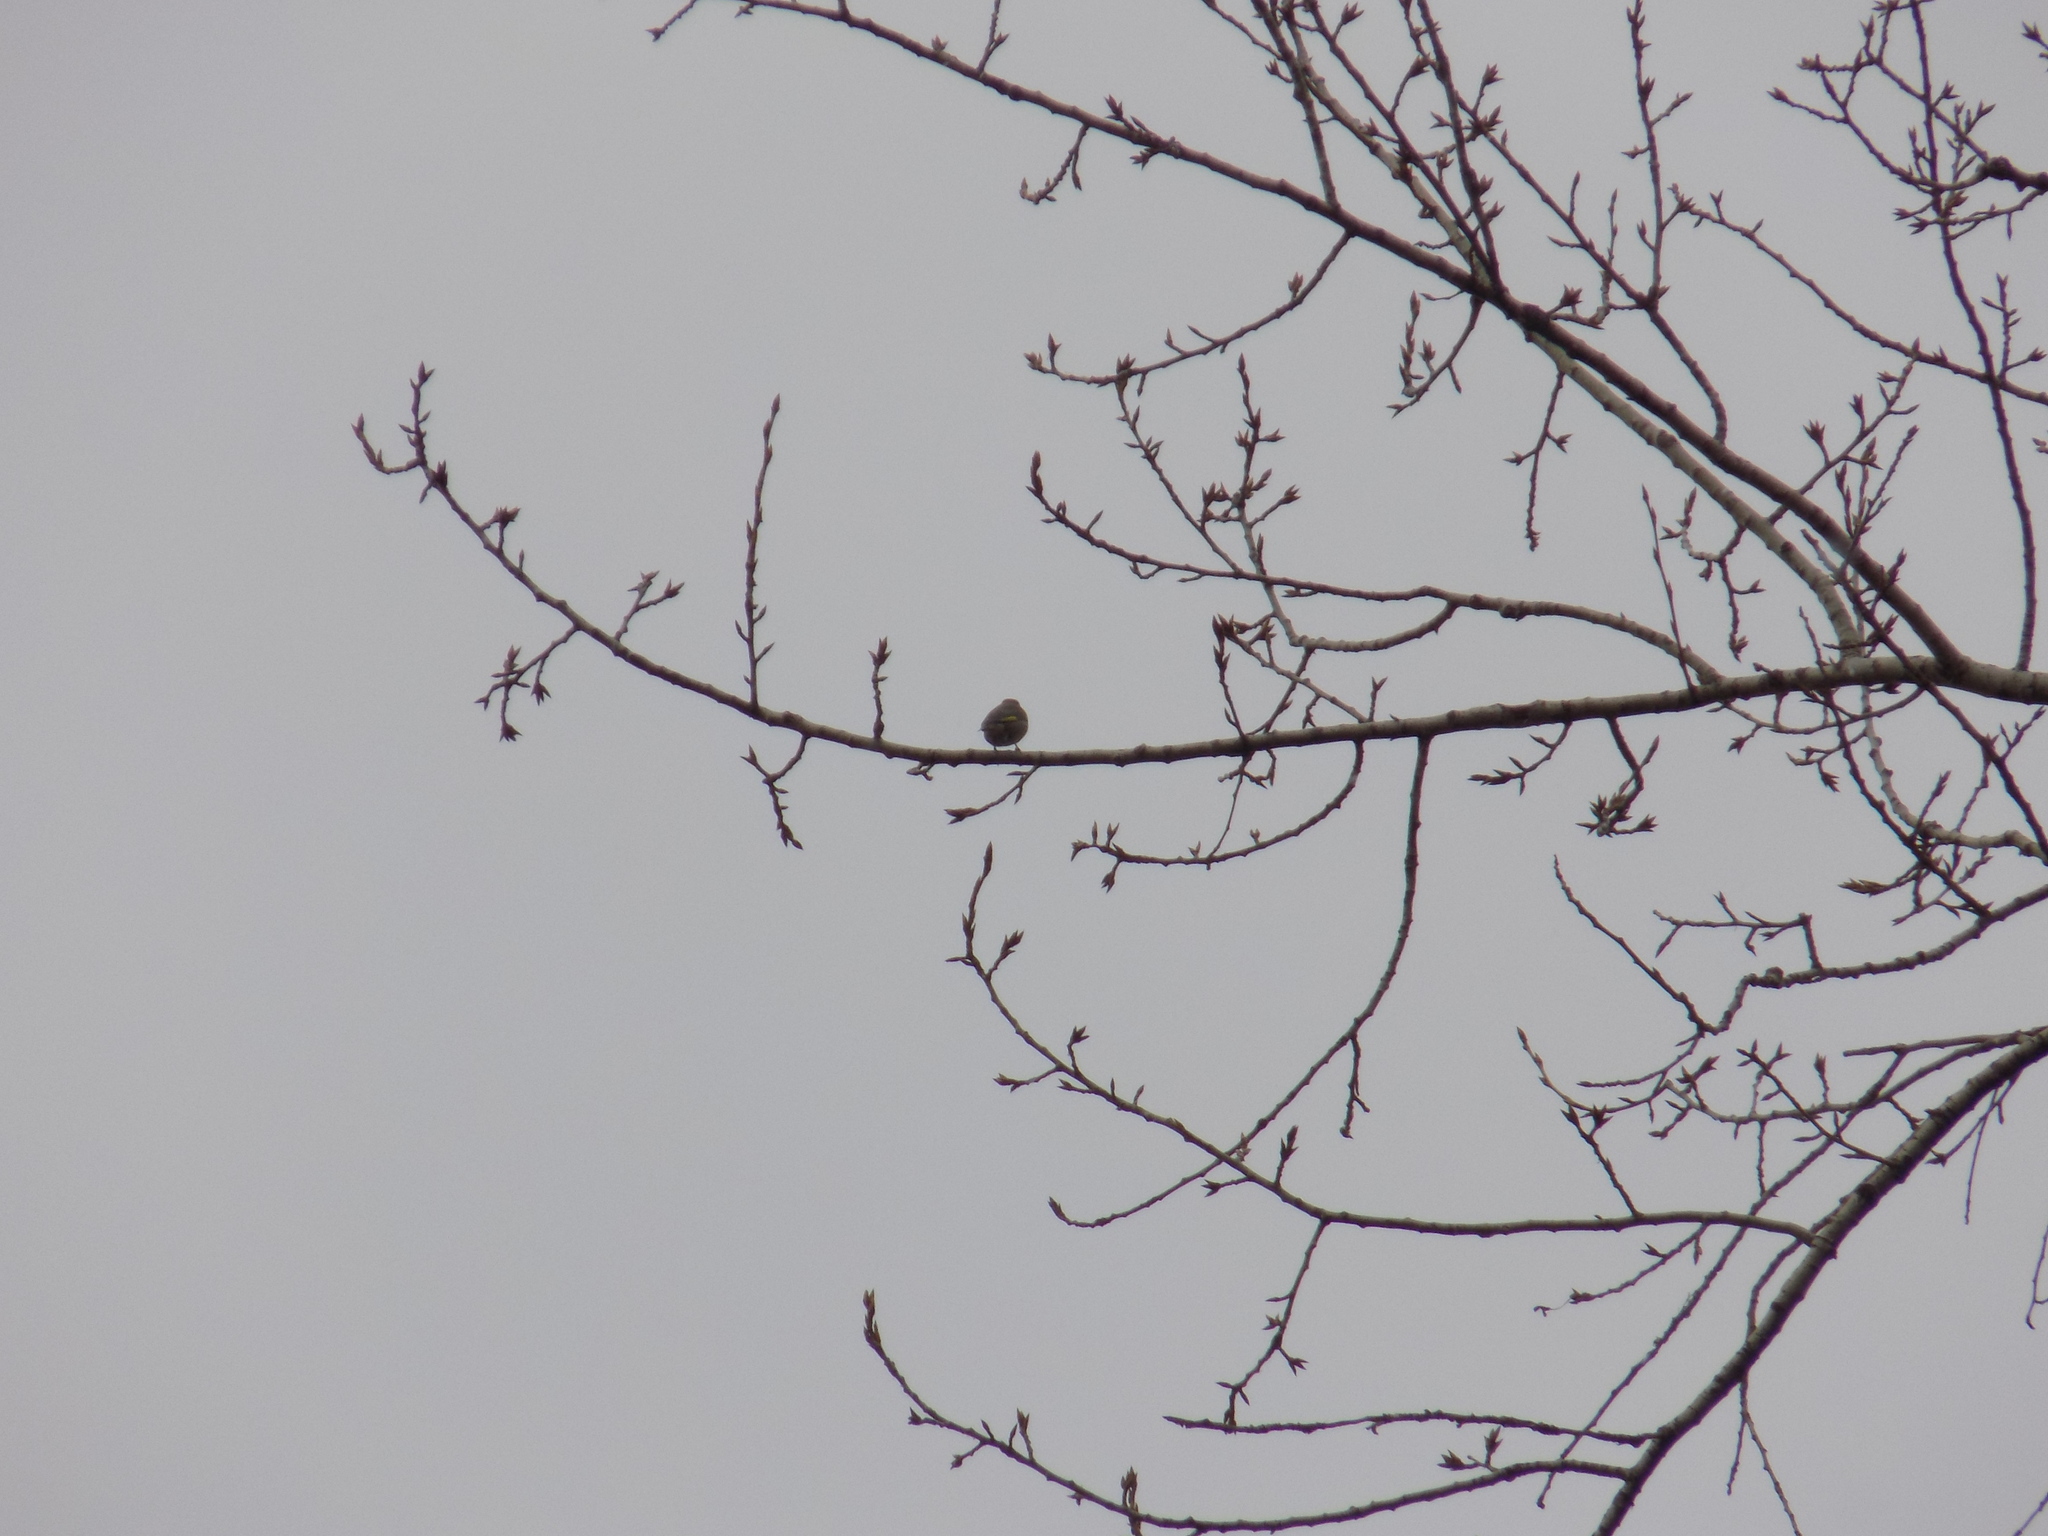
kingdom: Animalia
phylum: Chordata
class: Aves
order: Passeriformes
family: Fringillidae
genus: Carduelis
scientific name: Carduelis carduelis
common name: European goldfinch
